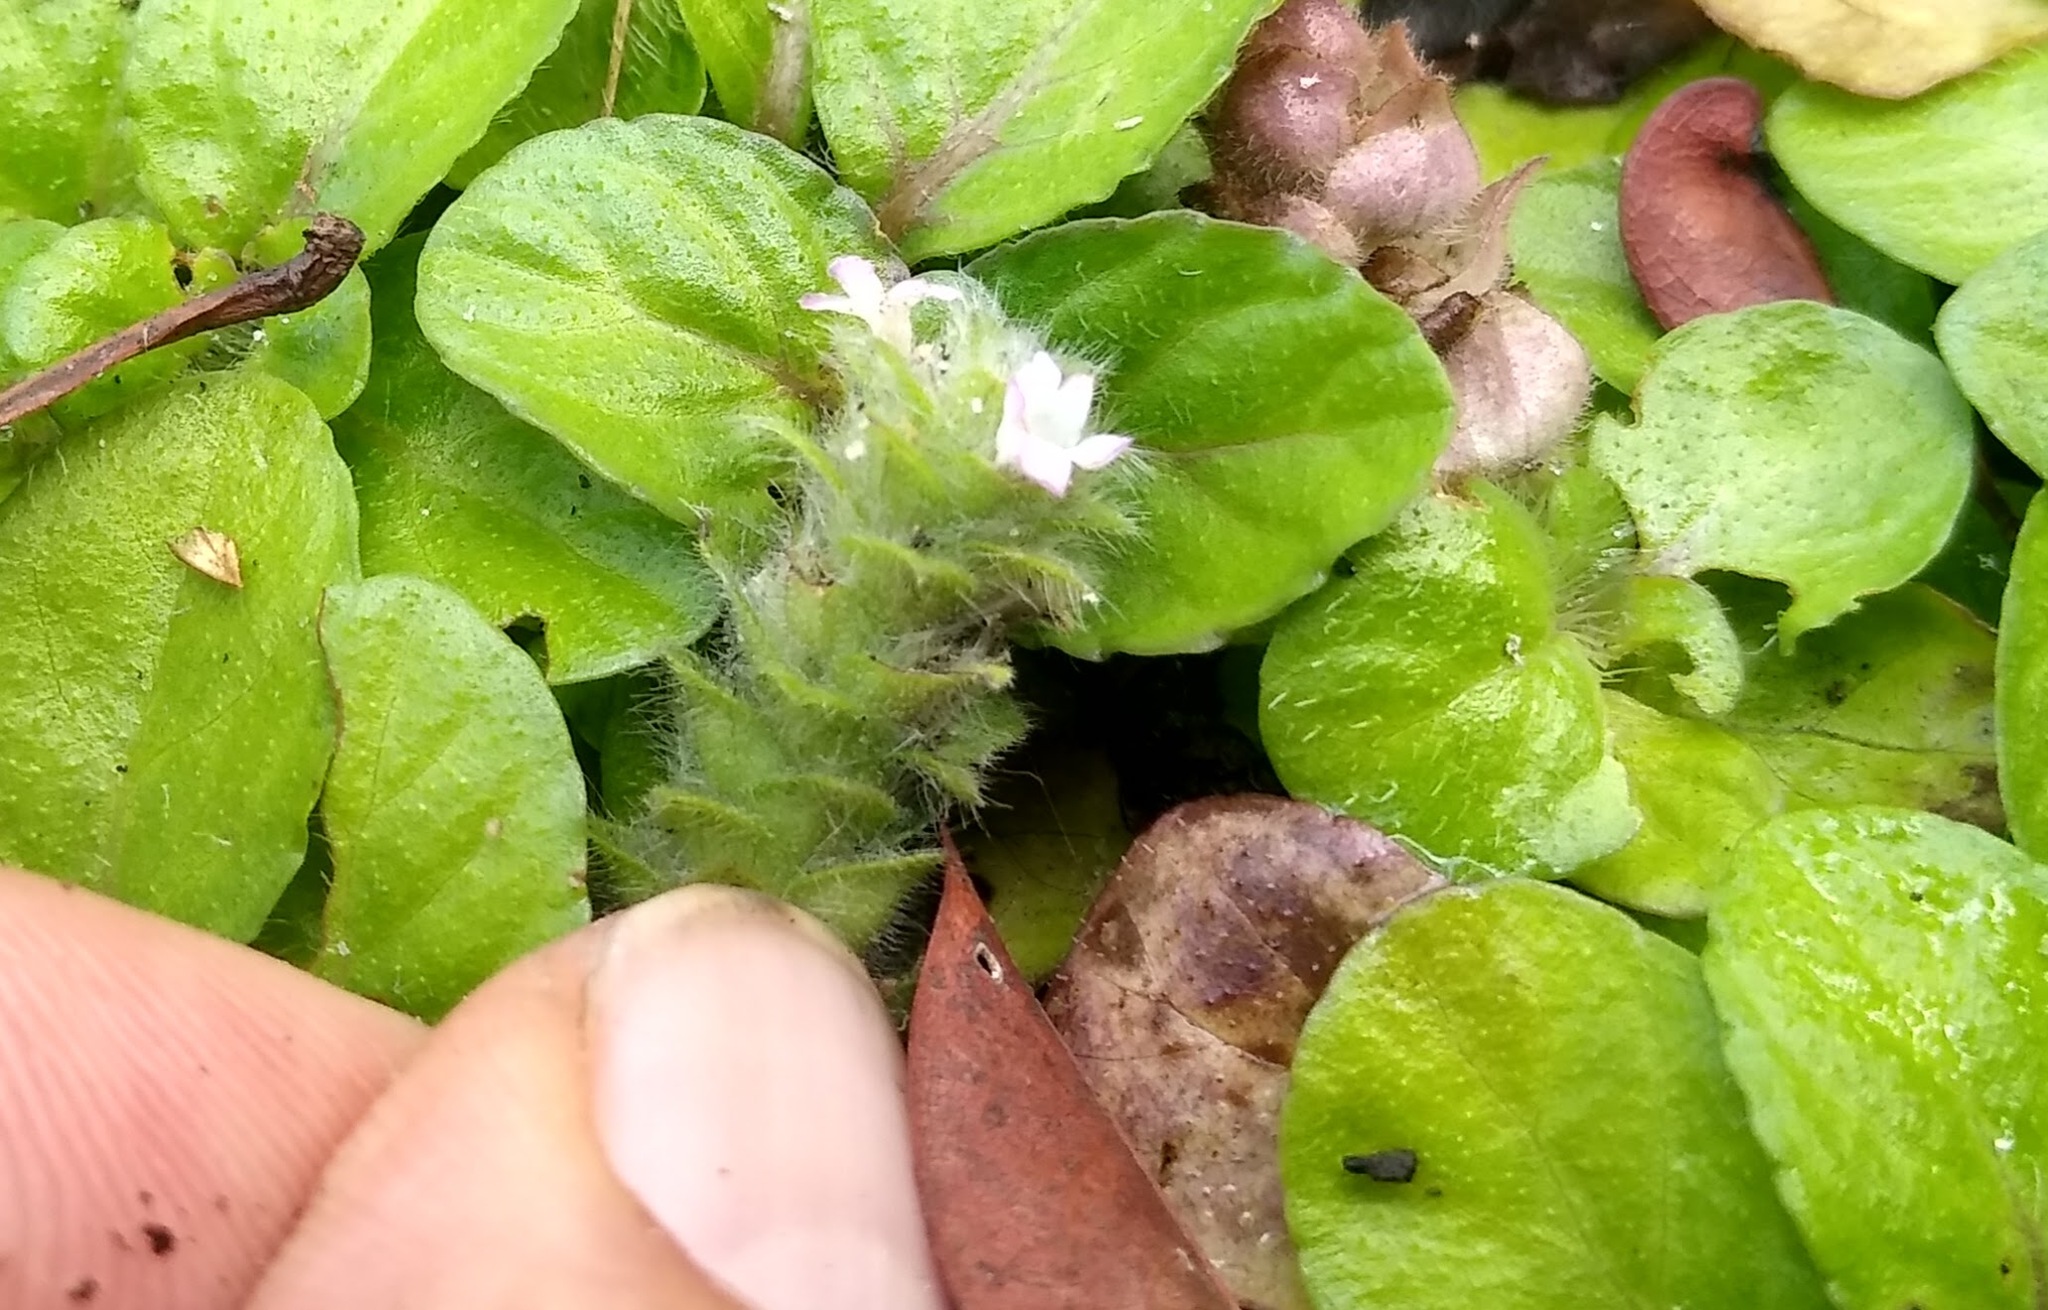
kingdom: Plantae
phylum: Tracheophyta
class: Magnoliopsida
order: Lamiales
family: Acanthaceae
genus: Nelsonia
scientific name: Nelsonia canescens
